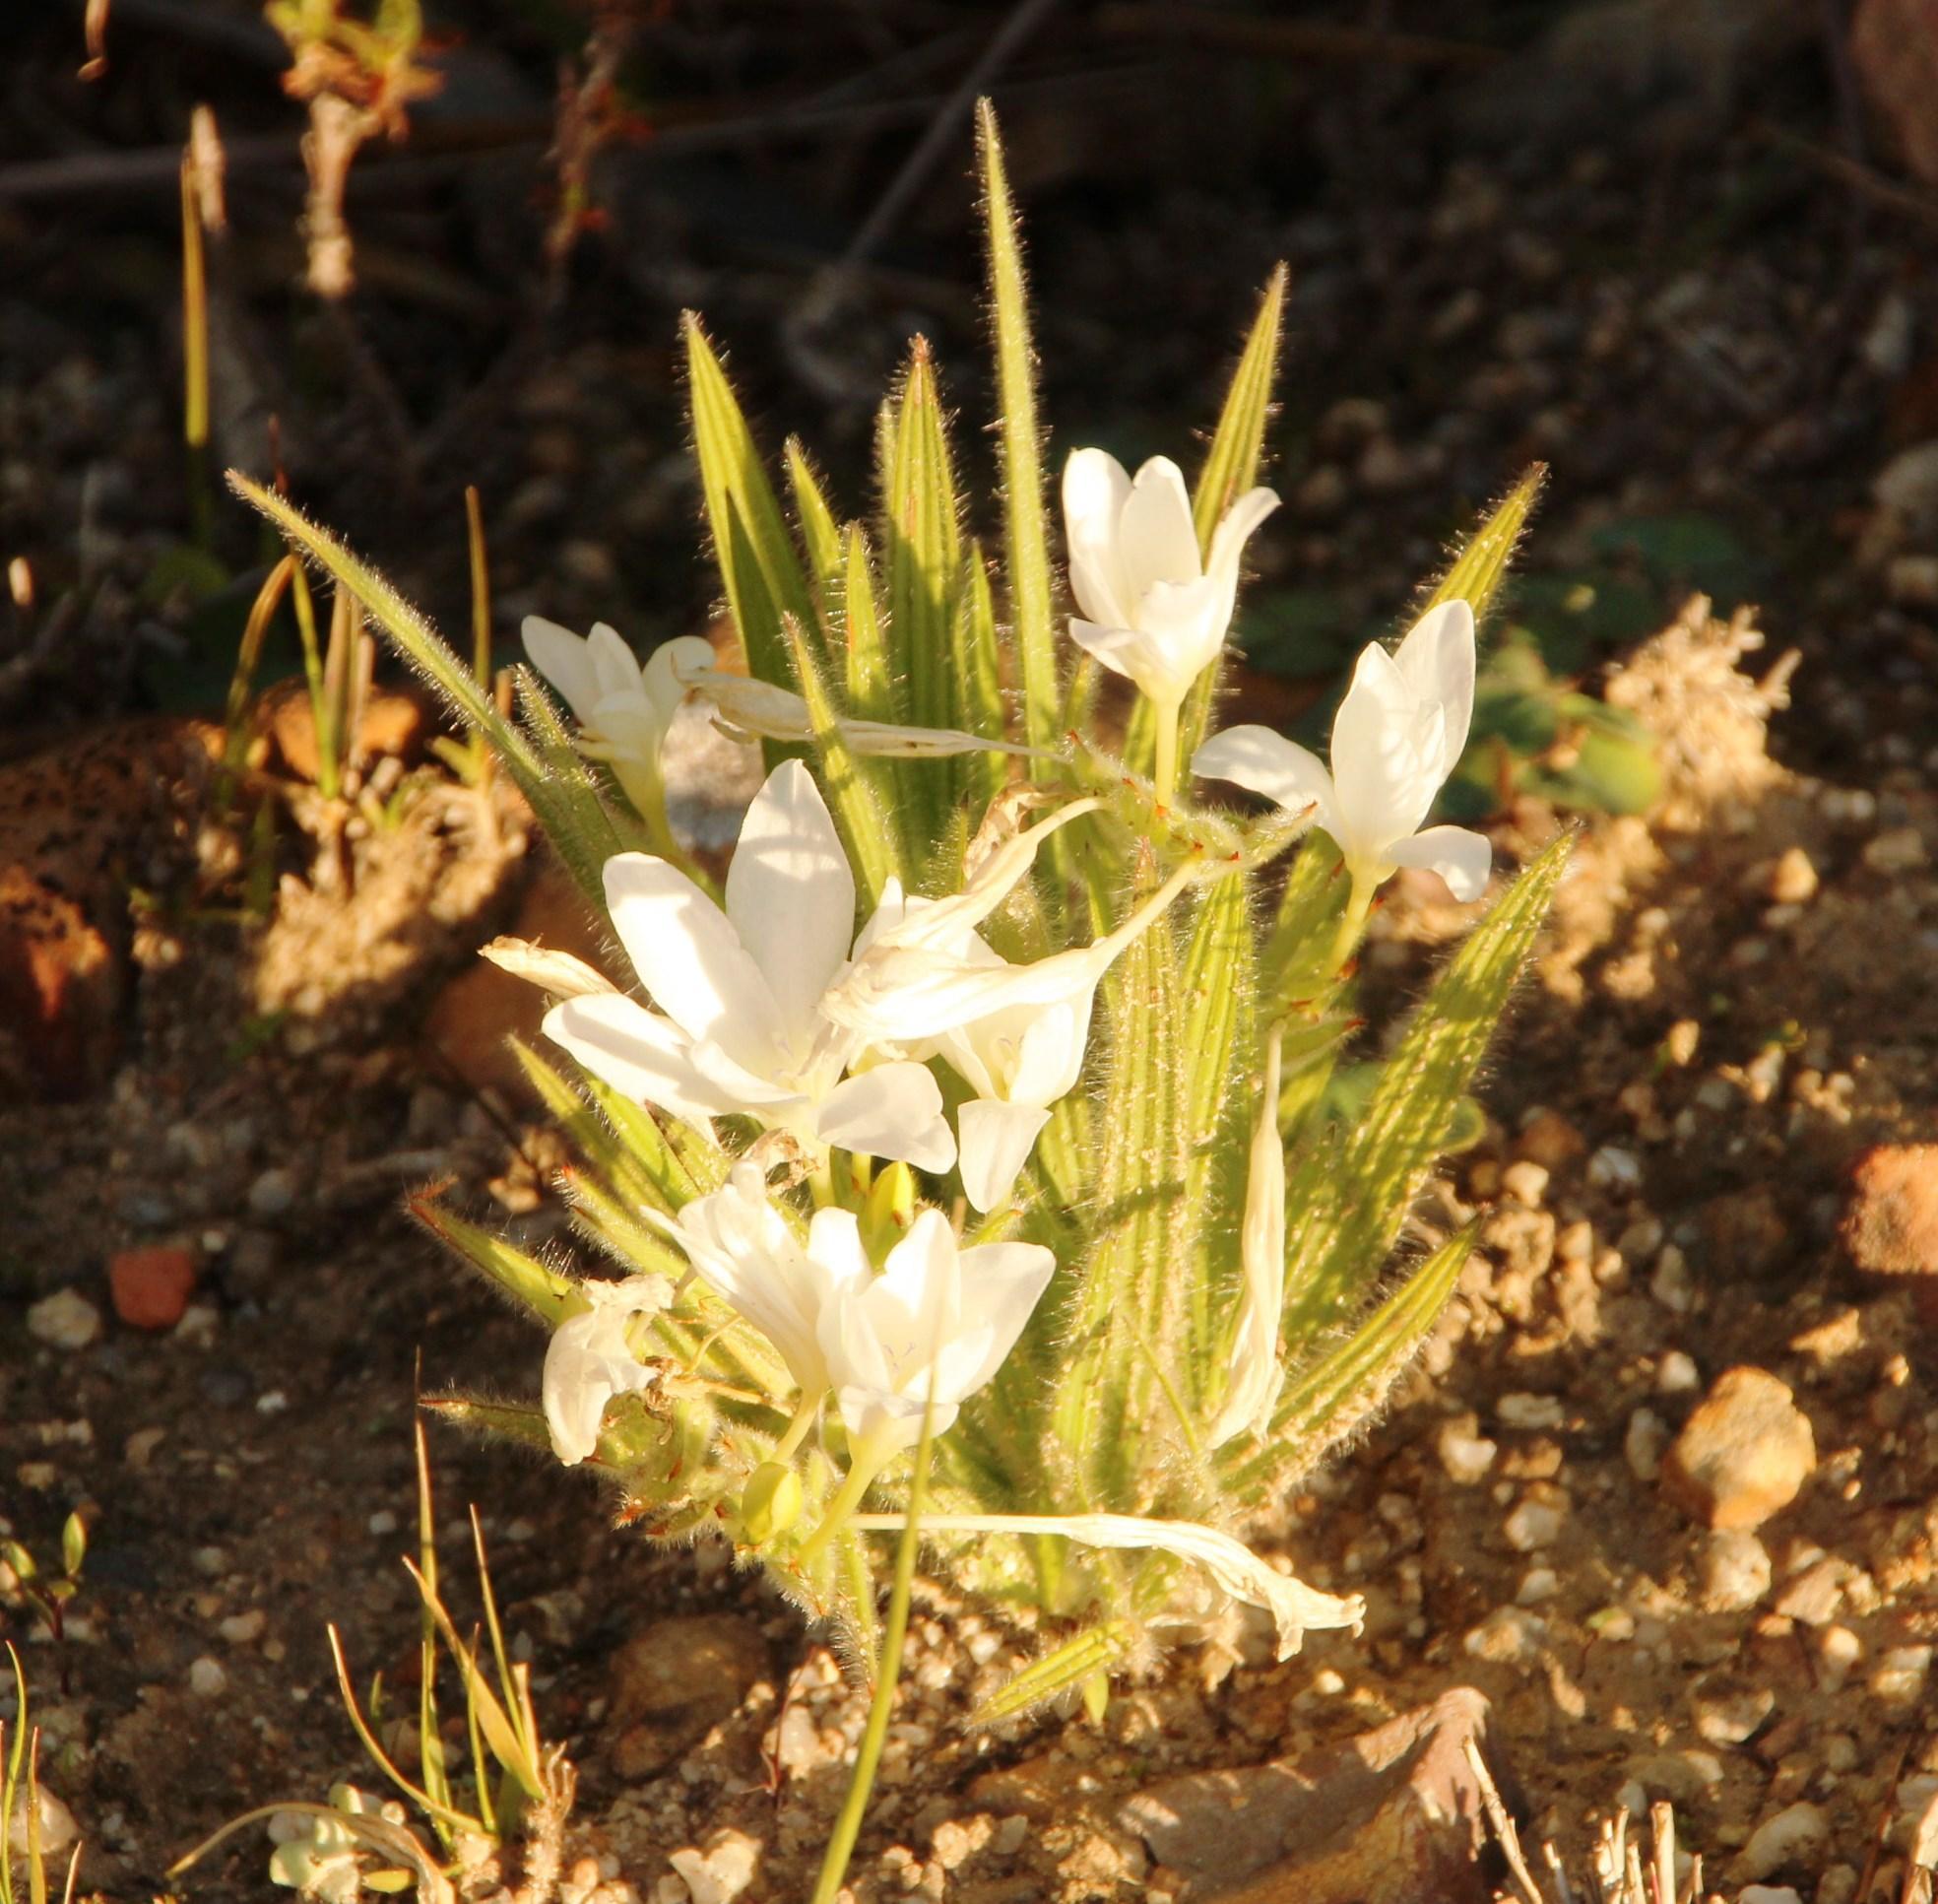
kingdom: Plantae
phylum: Tracheophyta
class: Liliopsida
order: Asparagales
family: Iridaceae
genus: Babiana
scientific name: Babiana villosula
